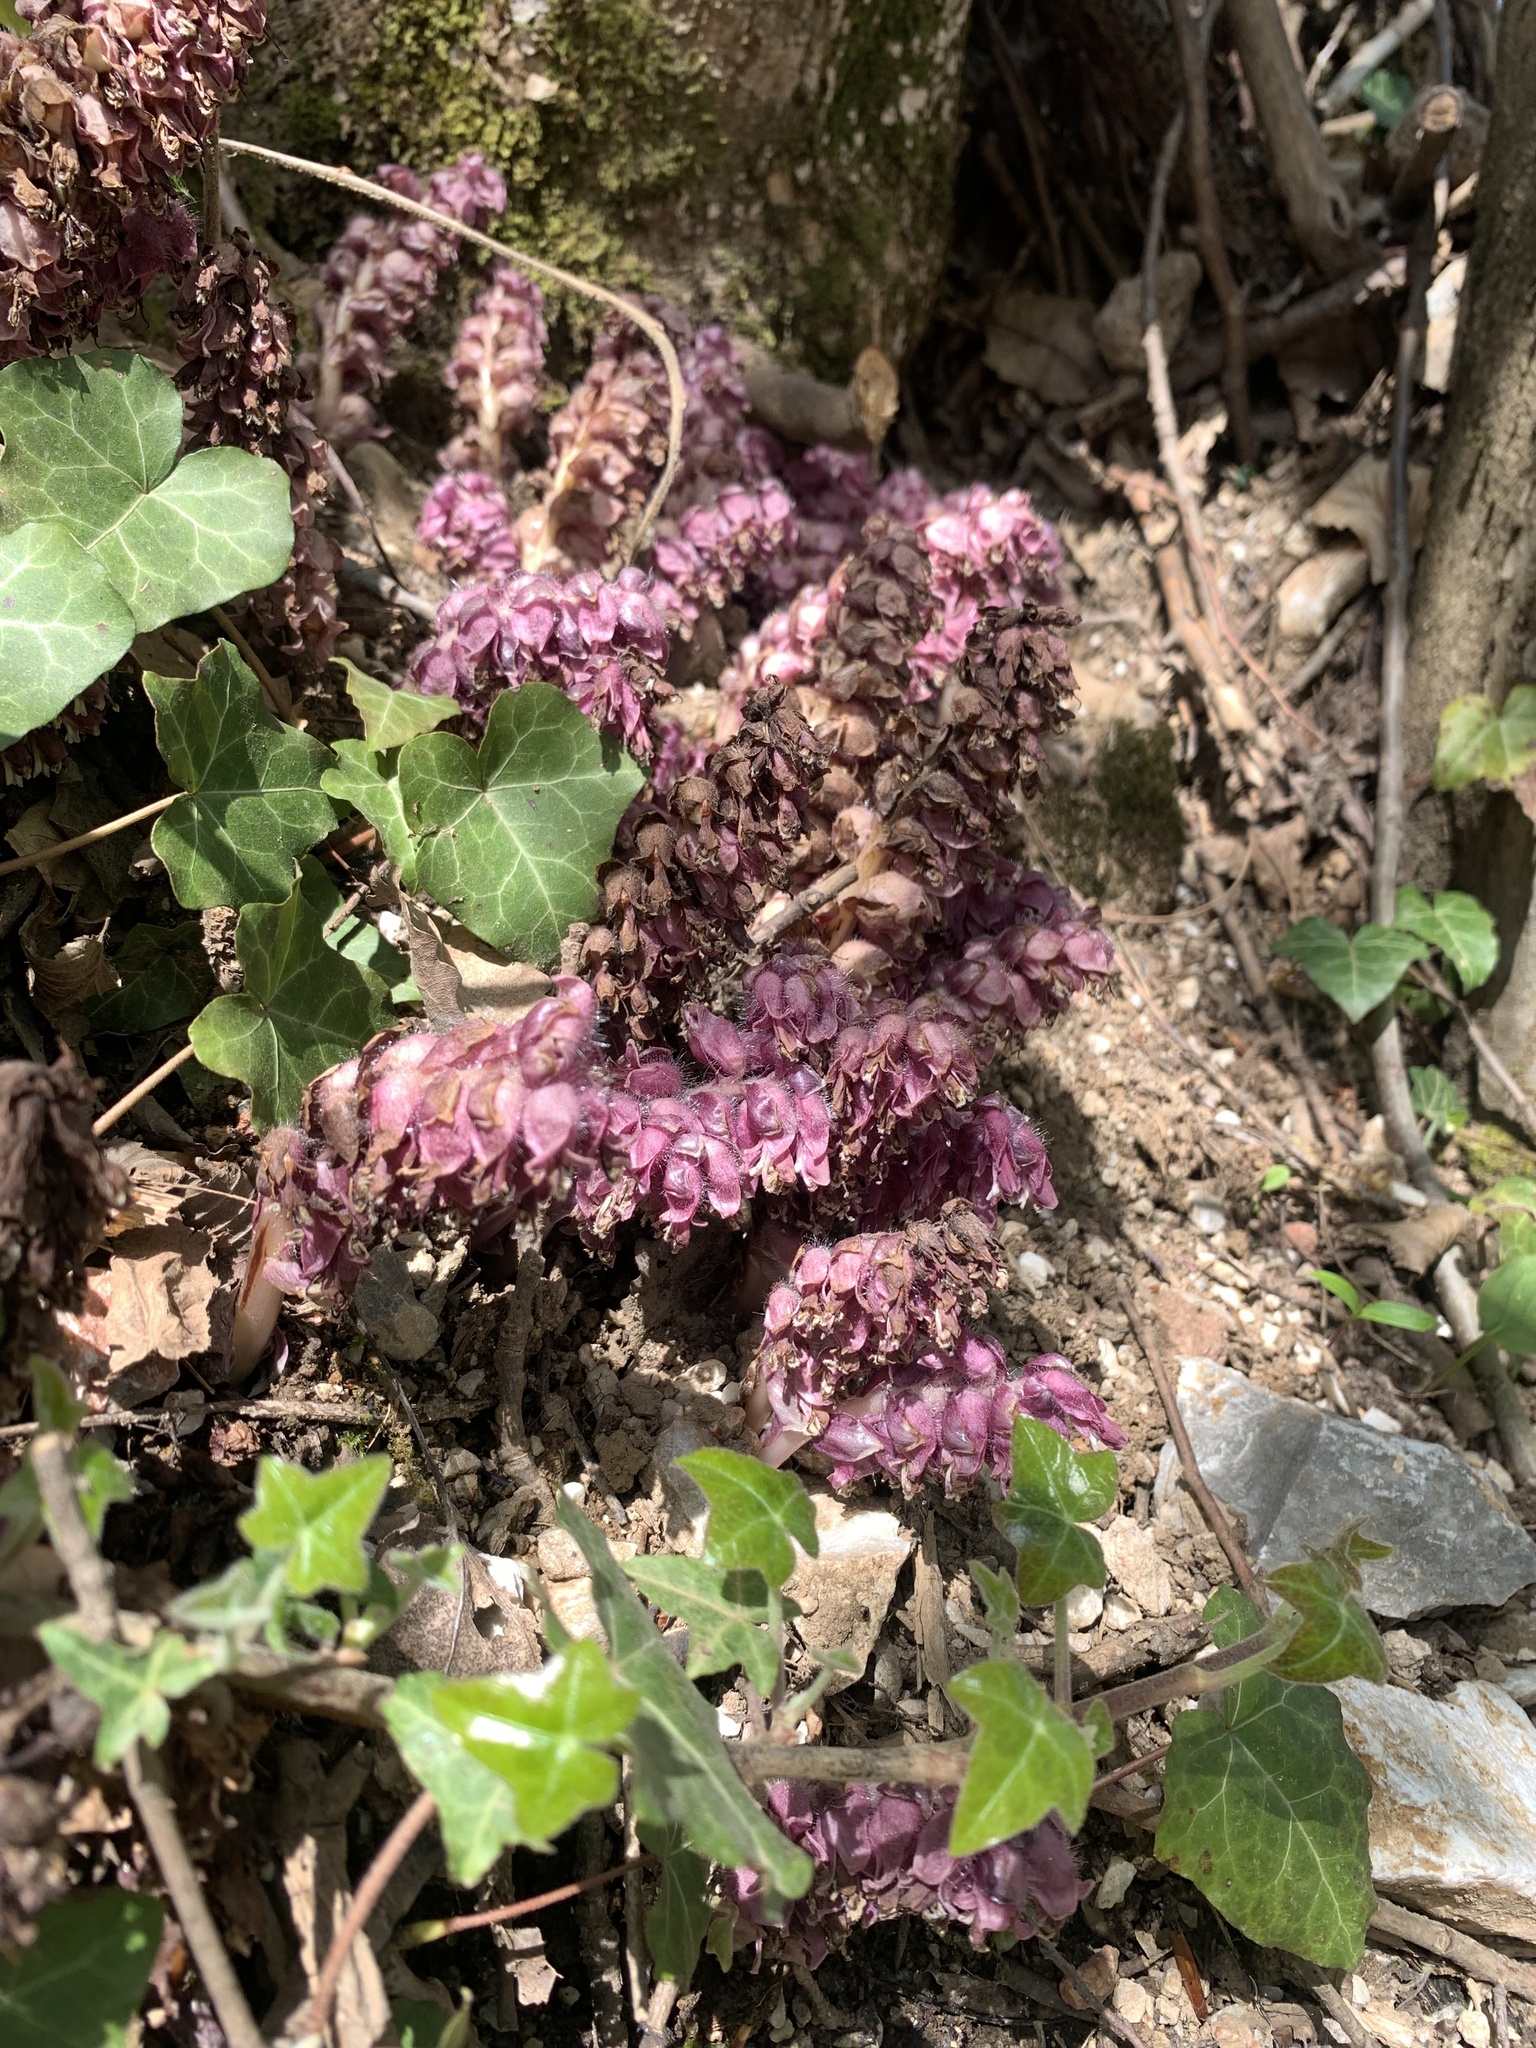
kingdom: Plantae
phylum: Tracheophyta
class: Magnoliopsida
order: Lamiales
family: Orobanchaceae
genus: Lathraea
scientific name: Lathraea squamaria
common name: Toothwort
